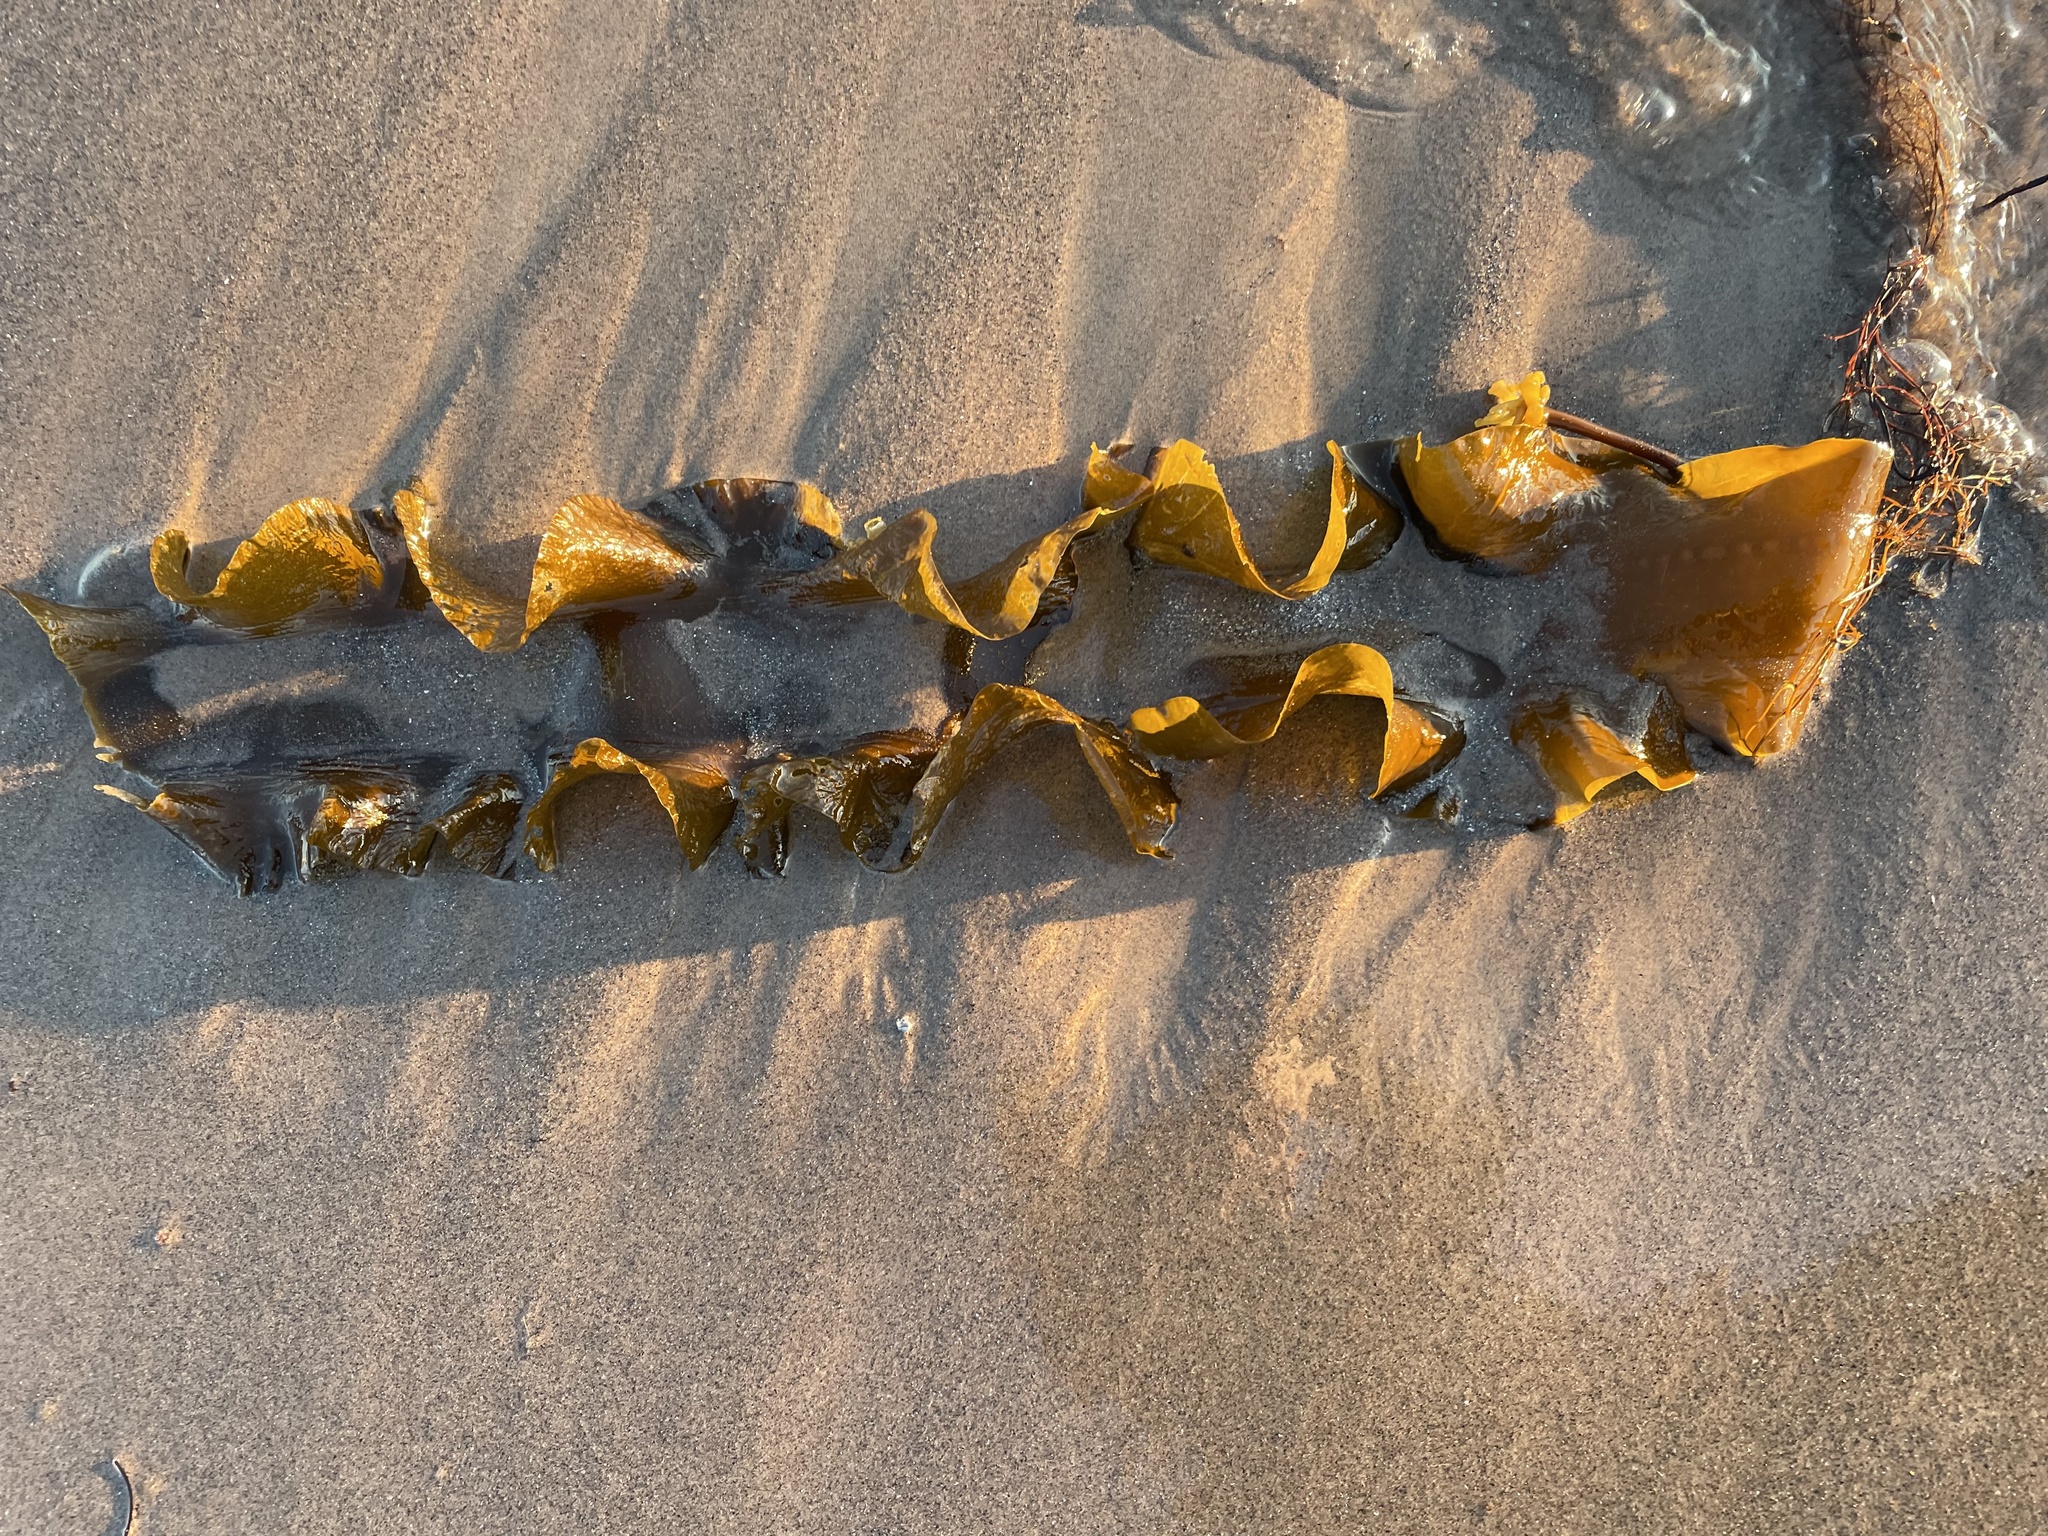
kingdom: Chromista
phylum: Ochrophyta
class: Phaeophyceae
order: Laminariales
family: Laminariaceae
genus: Saccharina
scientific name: Saccharina latissima
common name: Poor man's weather glass
